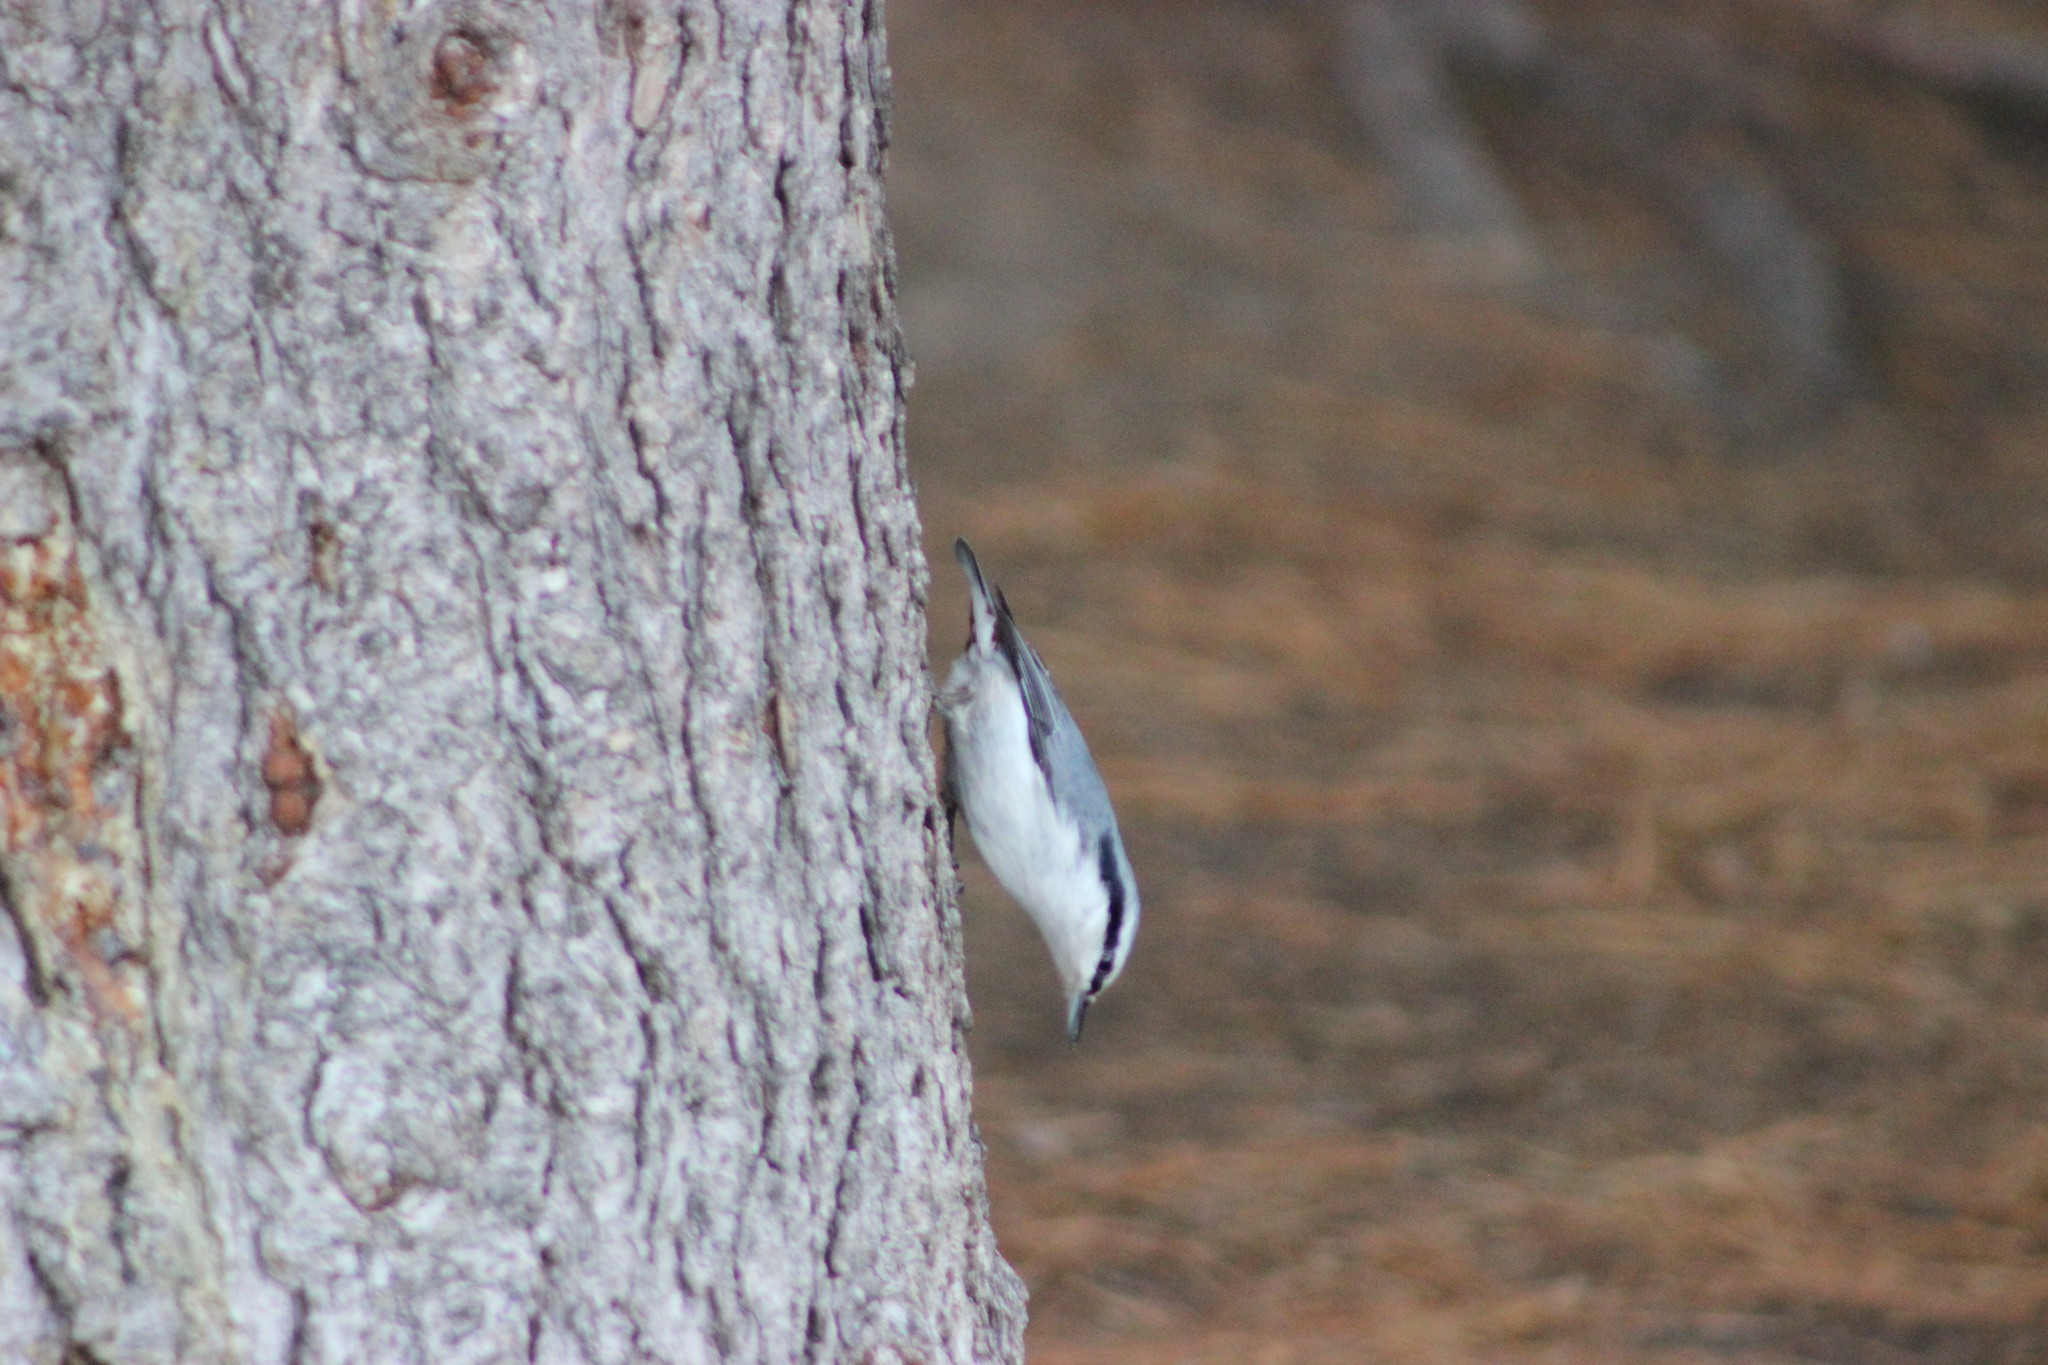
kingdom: Animalia
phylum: Chordata
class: Aves
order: Passeriformes
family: Sittidae
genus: Sitta
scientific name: Sitta europaea
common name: Eurasian nuthatch
